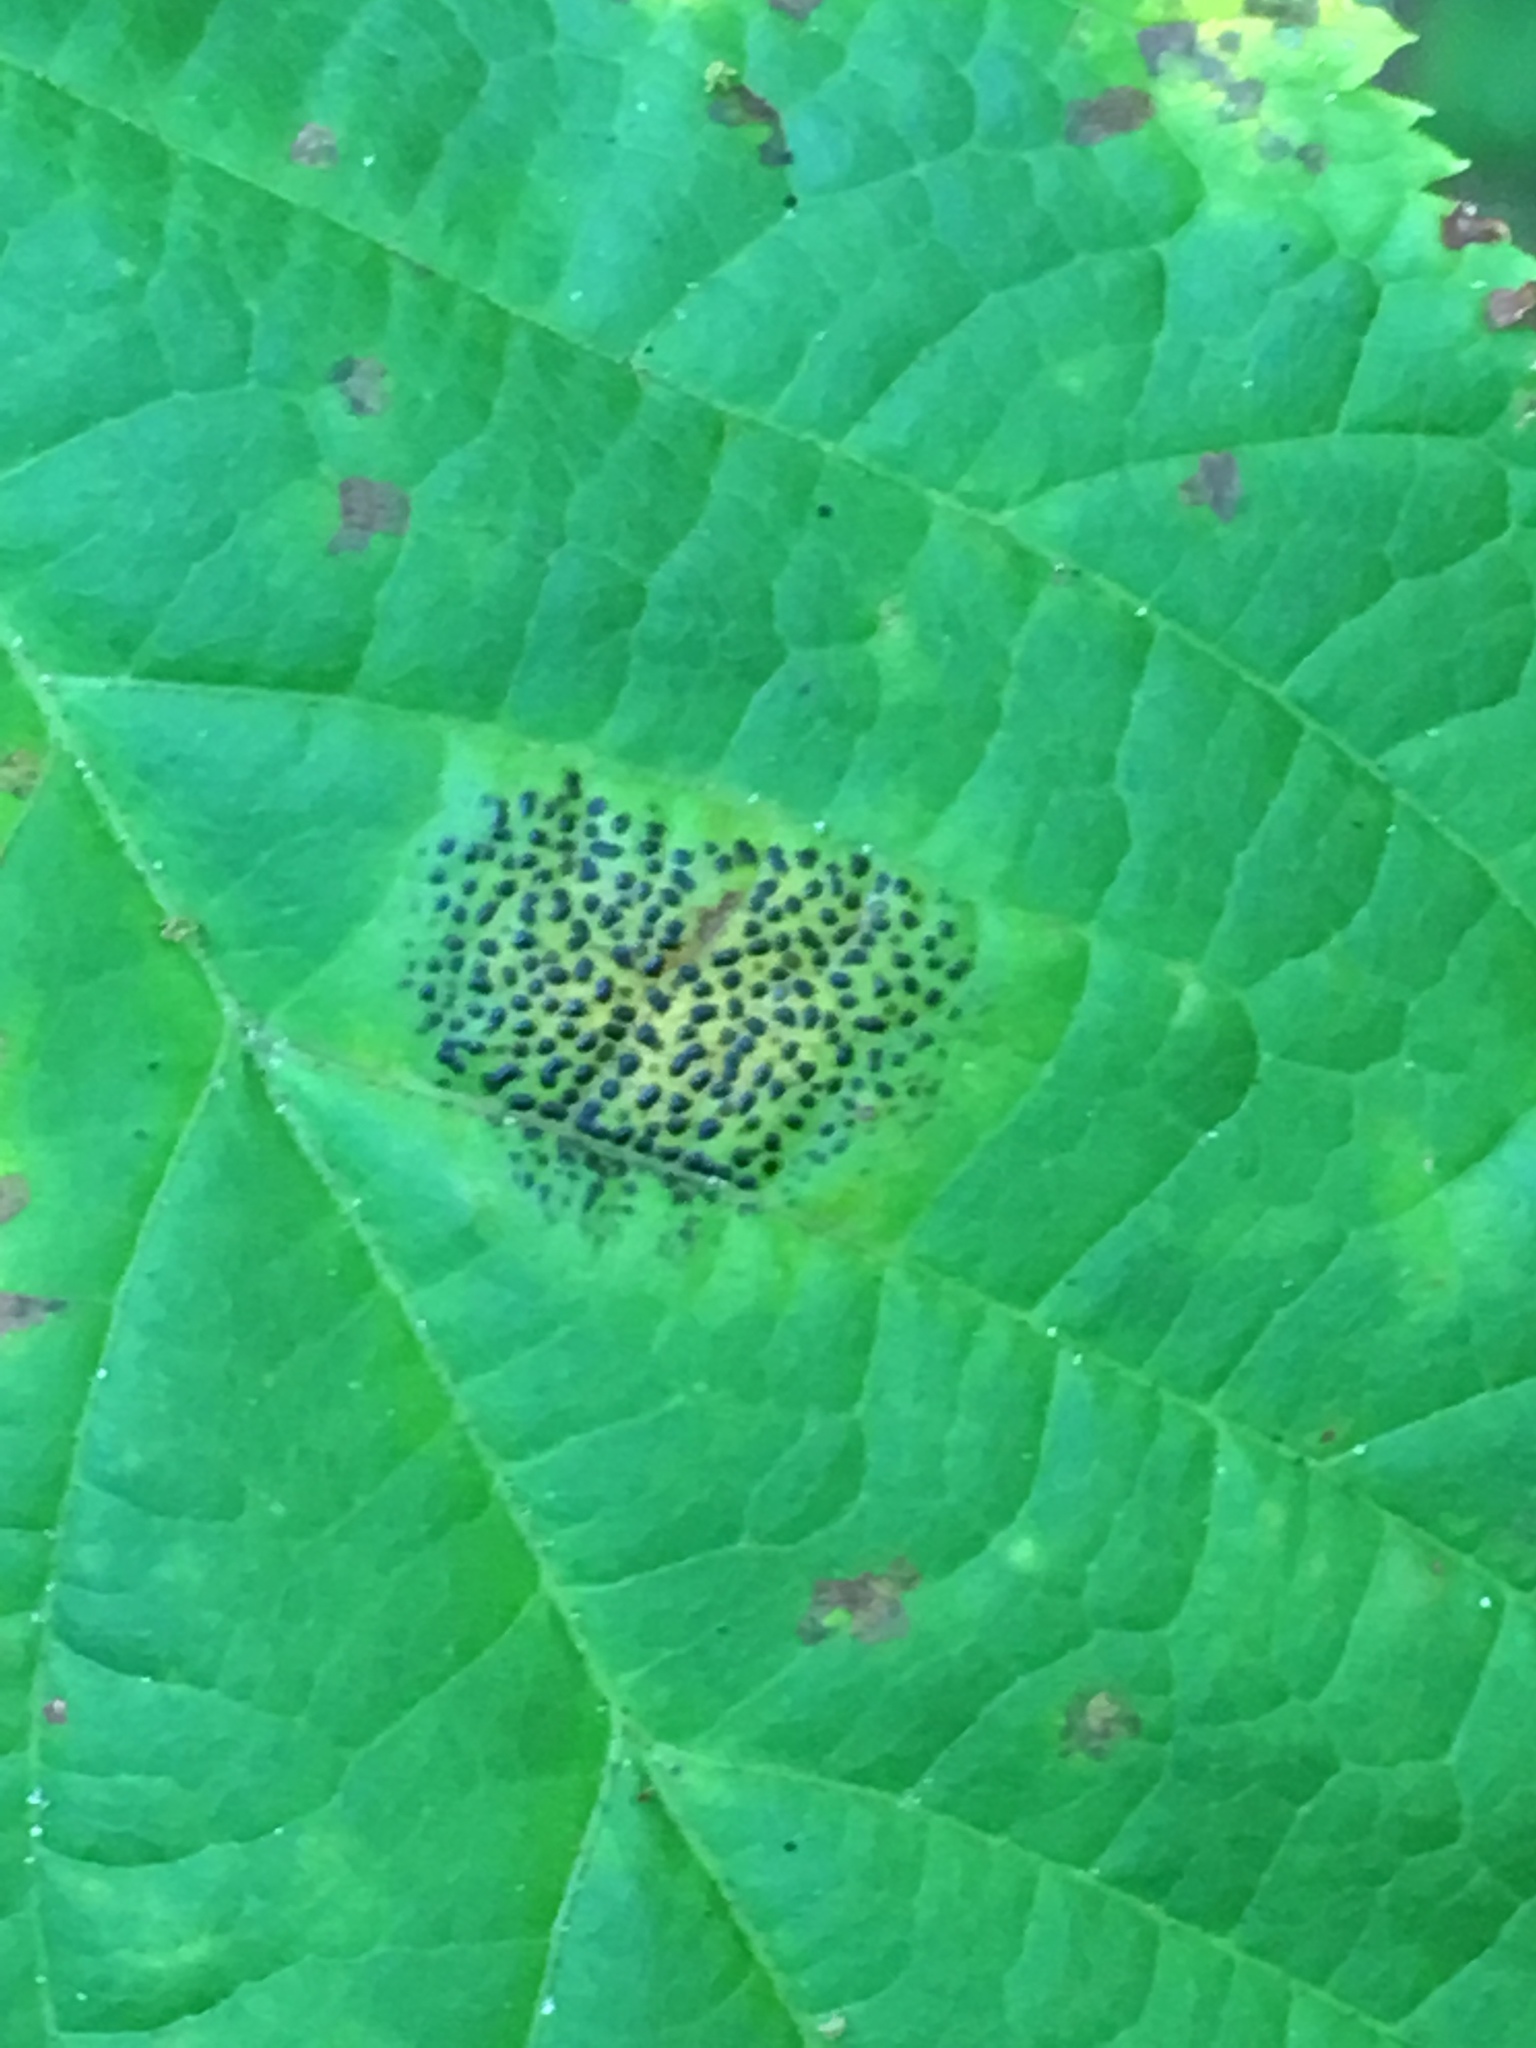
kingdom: Fungi
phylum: Ascomycota
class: Leotiomycetes
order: Rhytismatales
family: Rhytismataceae
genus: Rhytisma
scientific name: Rhytisma punctatum
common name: Speckled tar spot
